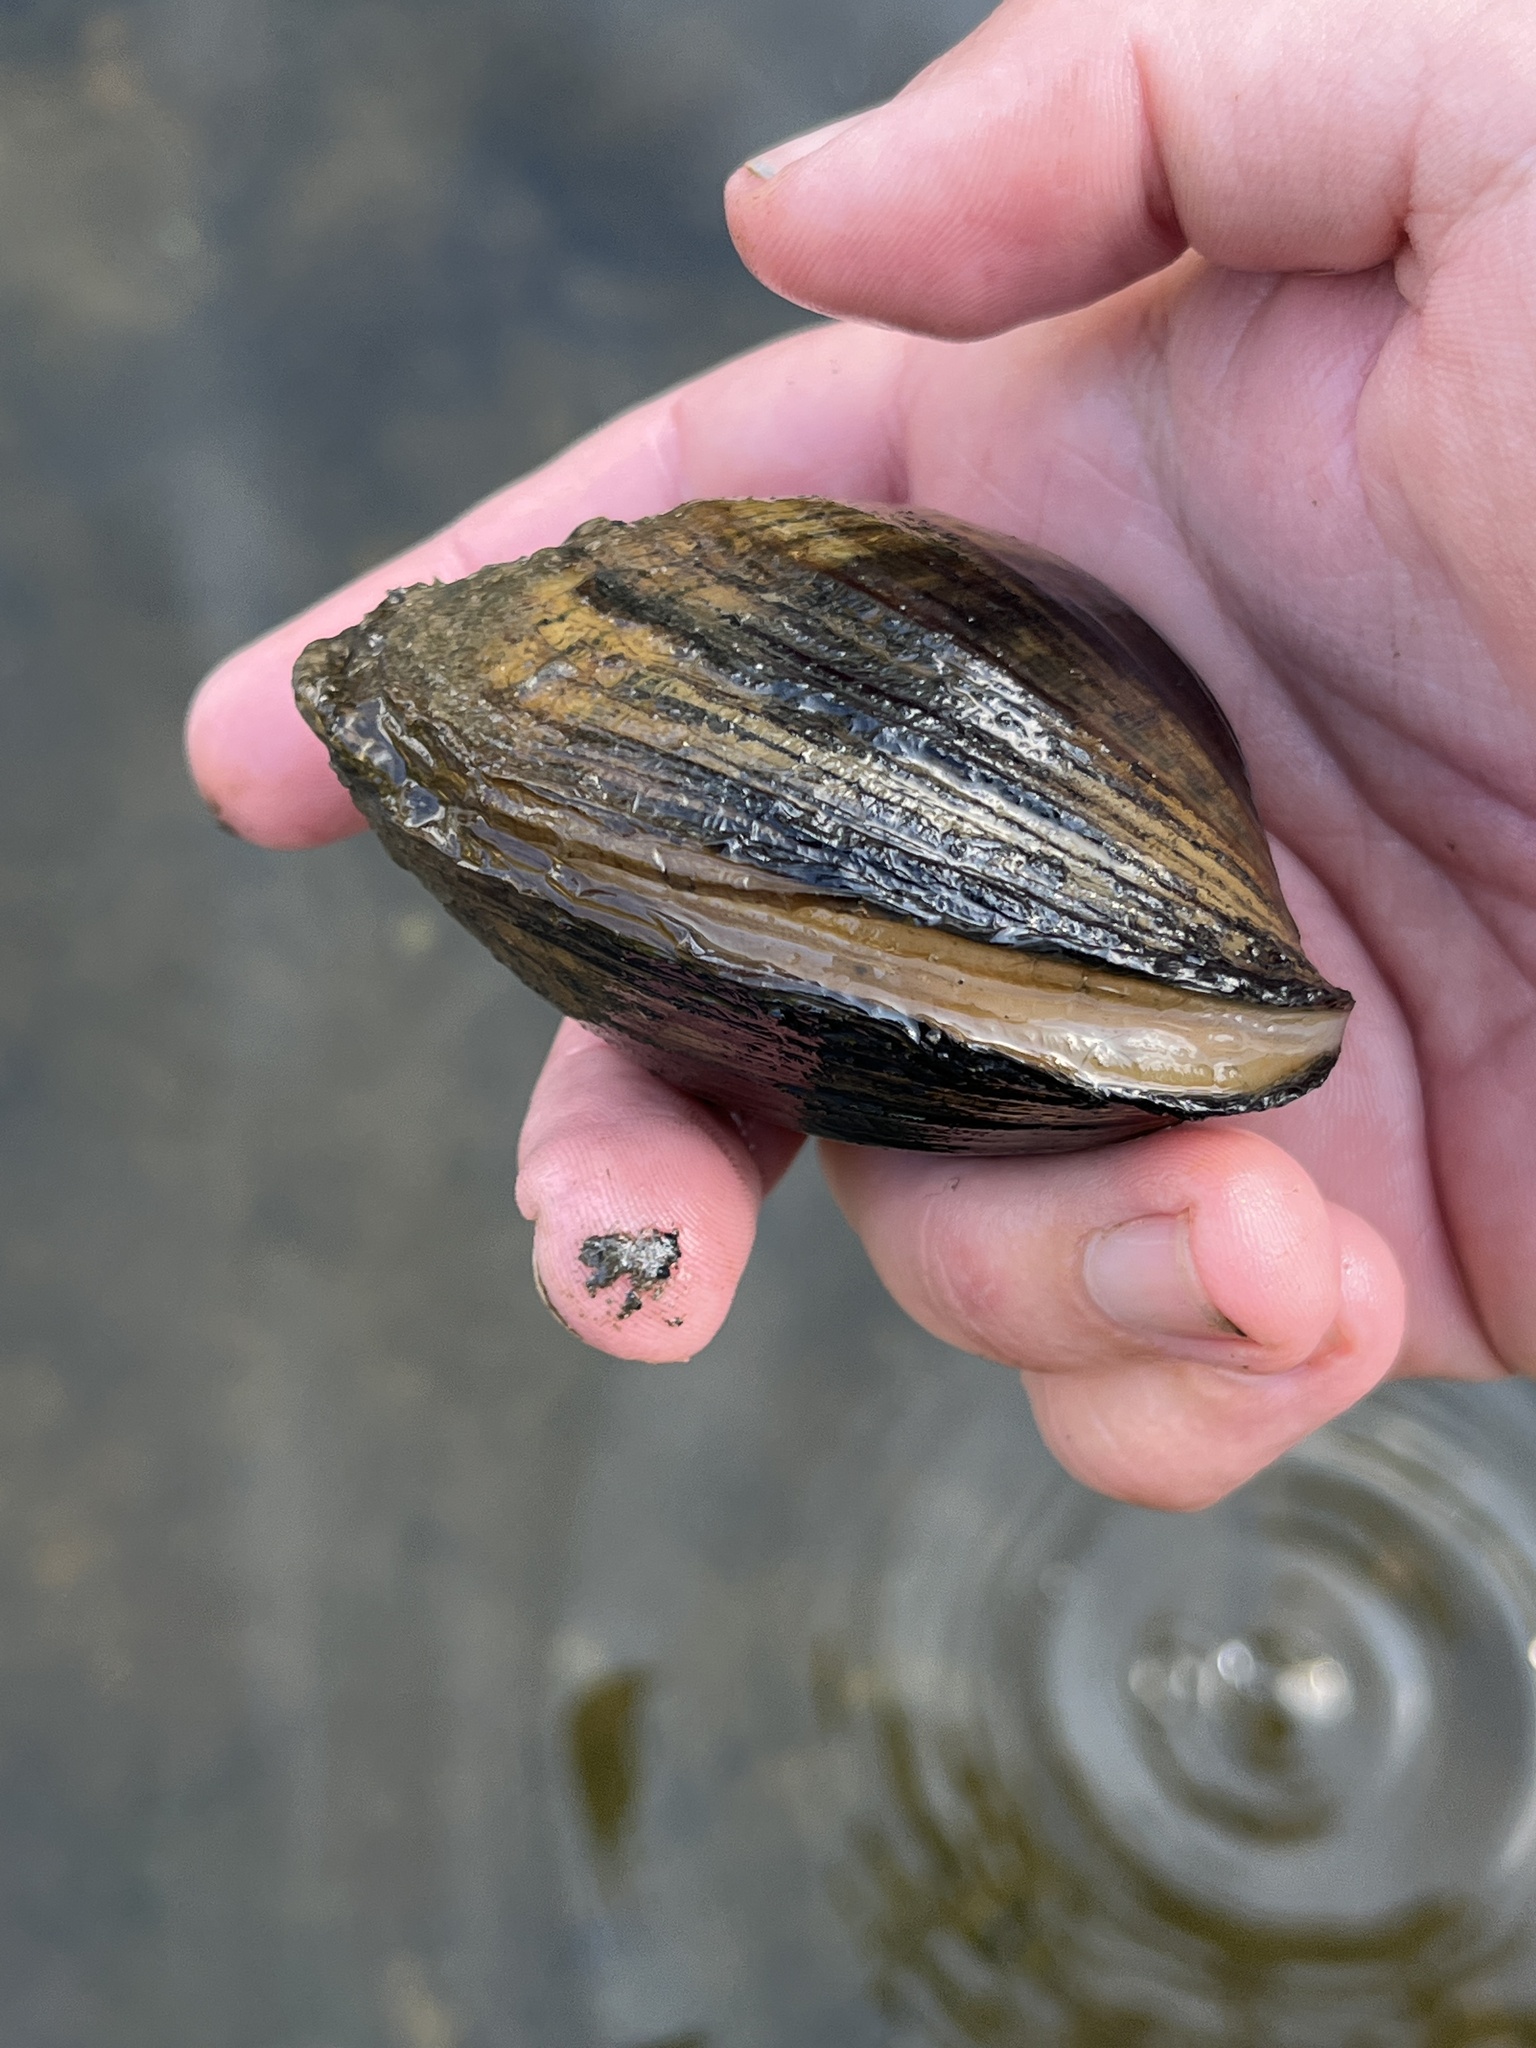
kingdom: Animalia
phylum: Mollusca
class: Bivalvia
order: Unionida
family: Unionidae
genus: Lampsilis
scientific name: Lampsilis cardium
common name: Plain pocketbook
